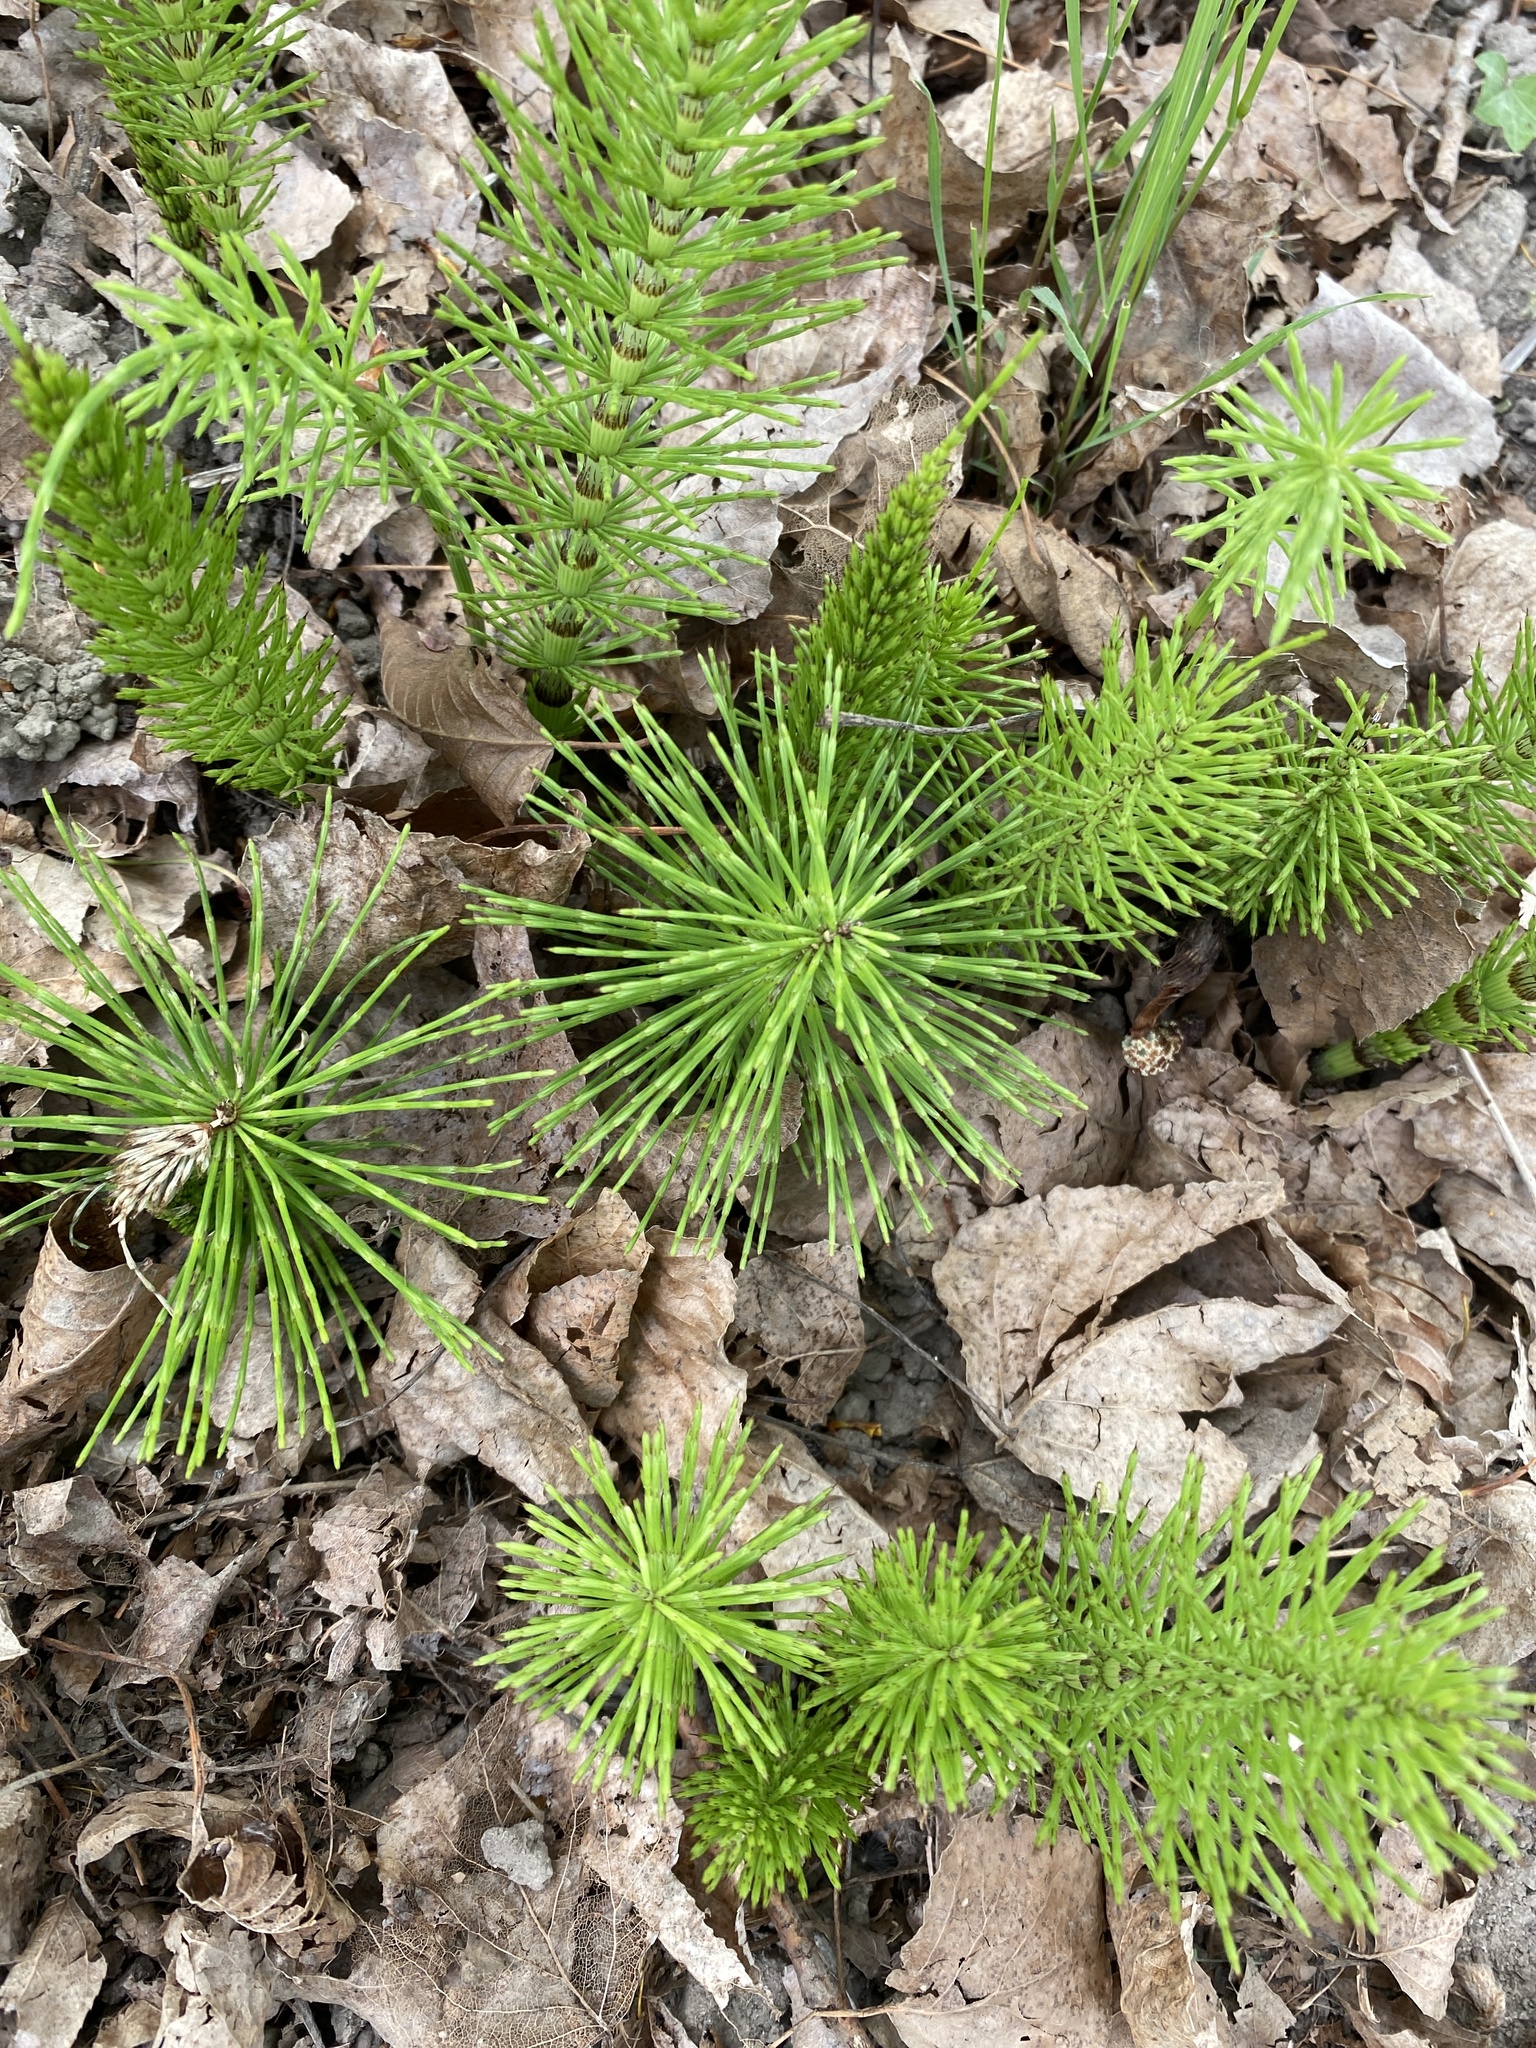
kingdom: Plantae
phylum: Tracheophyta
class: Polypodiopsida
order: Equisetales
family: Equisetaceae
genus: Equisetum
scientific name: Equisetum arvense
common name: Field horsetail
